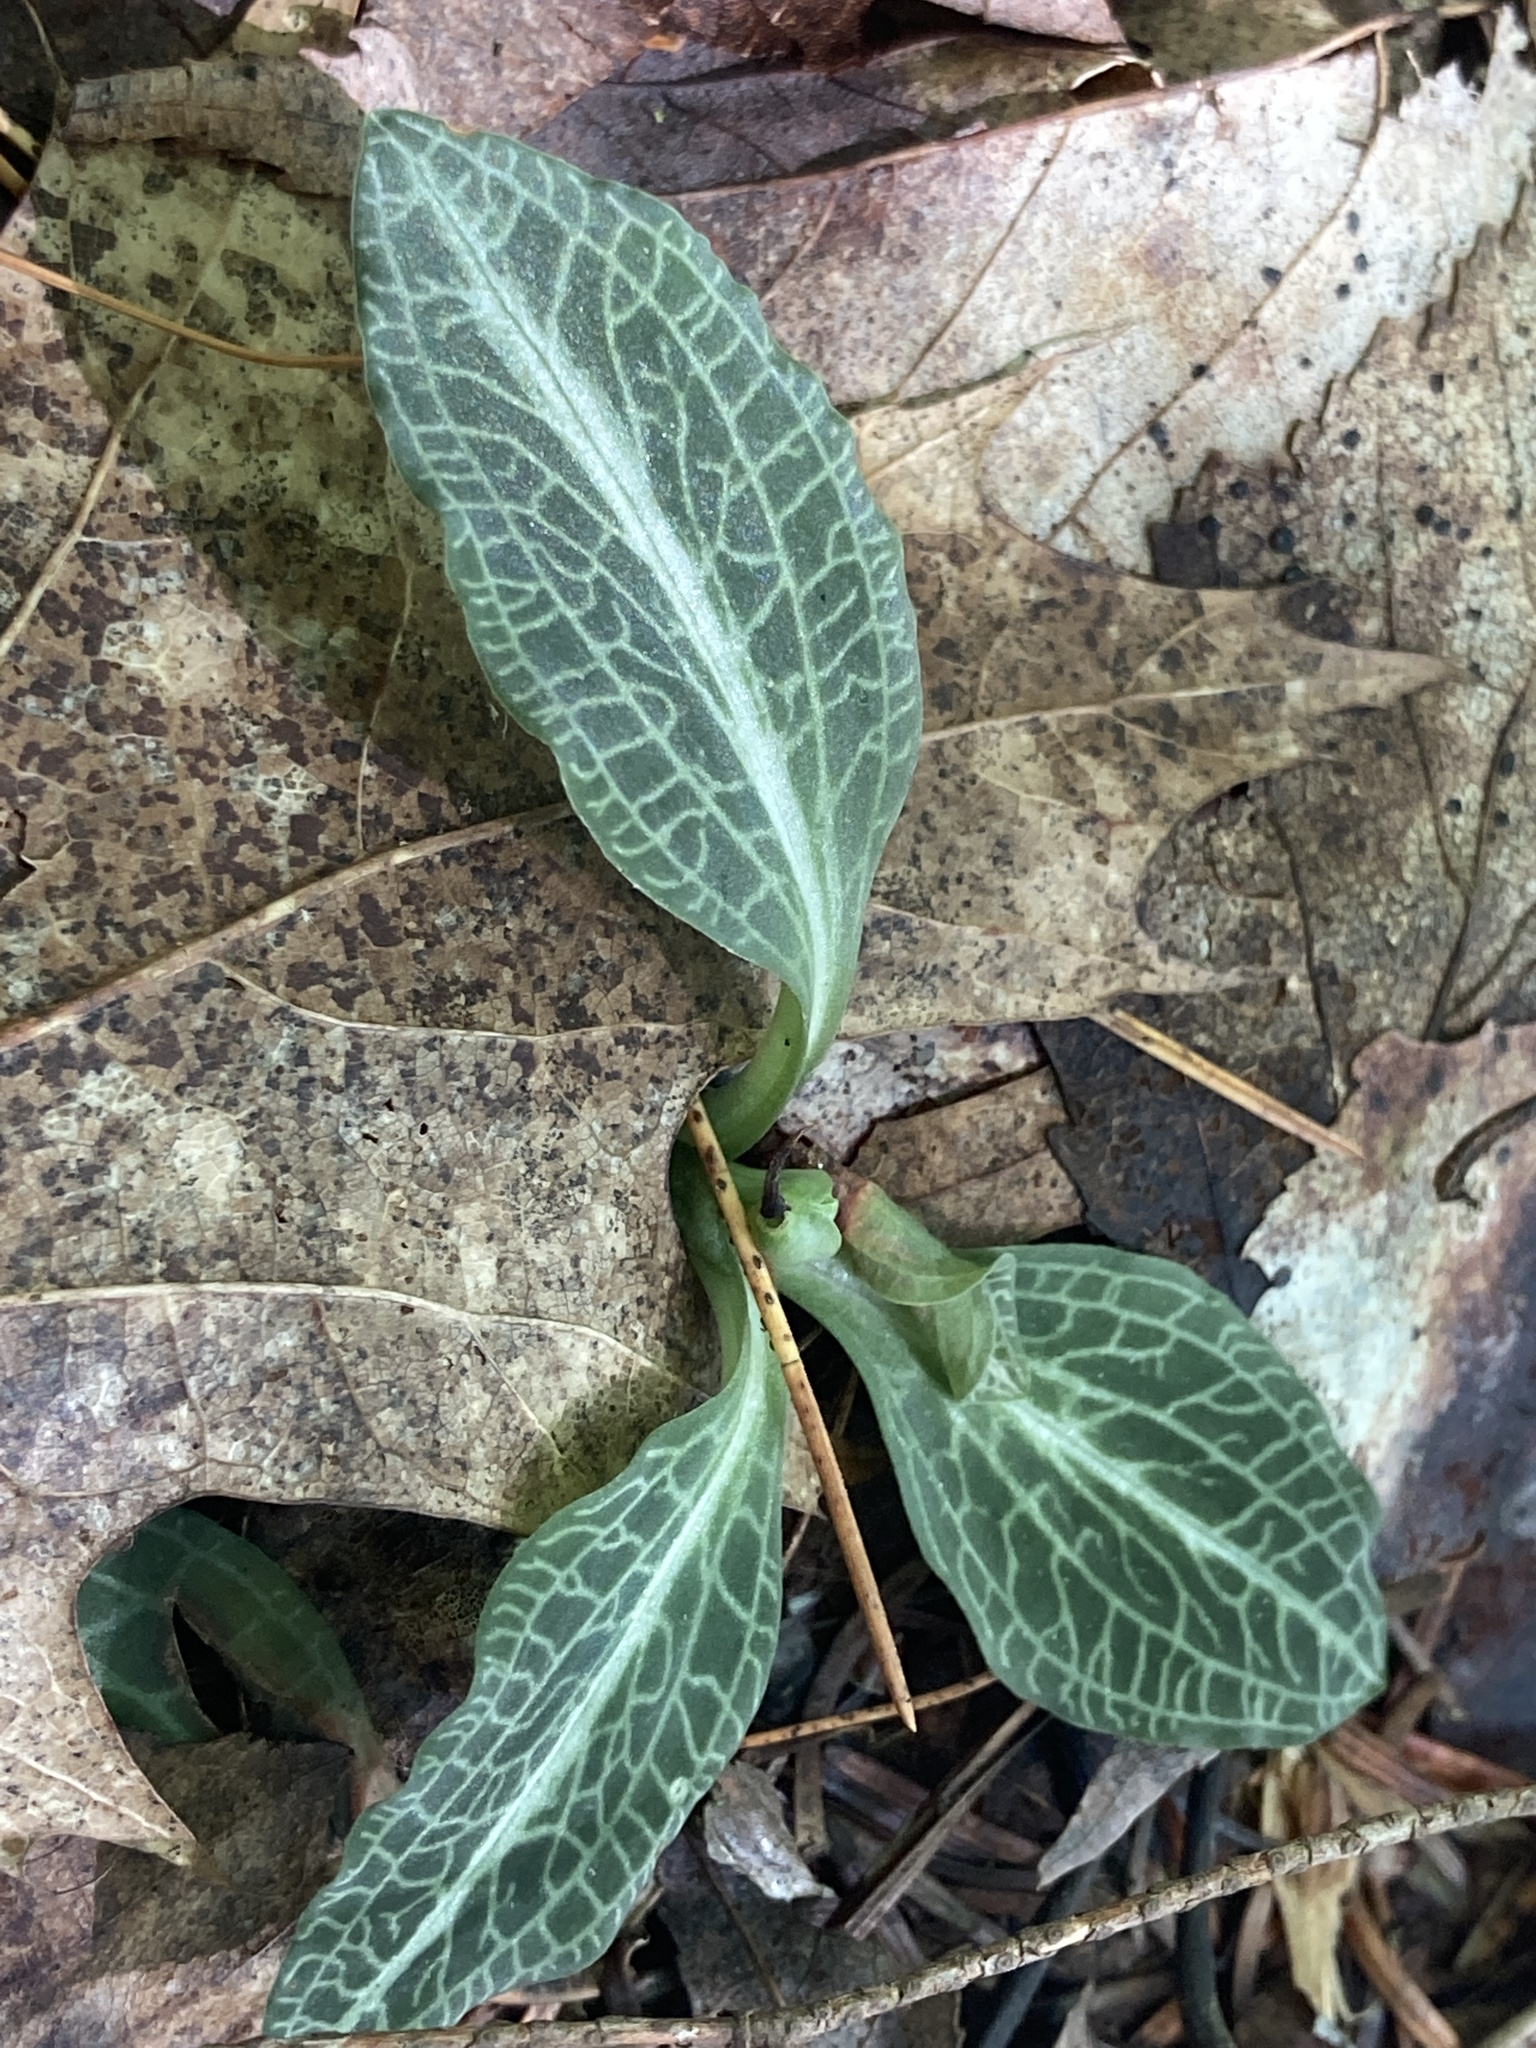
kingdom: Plantae
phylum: Tracheophyta
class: Liliopsida
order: Asparagales
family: Orchidaceae
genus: Goodyera
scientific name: Goodyera pubescens
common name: Downy rattlesnake-plantain
